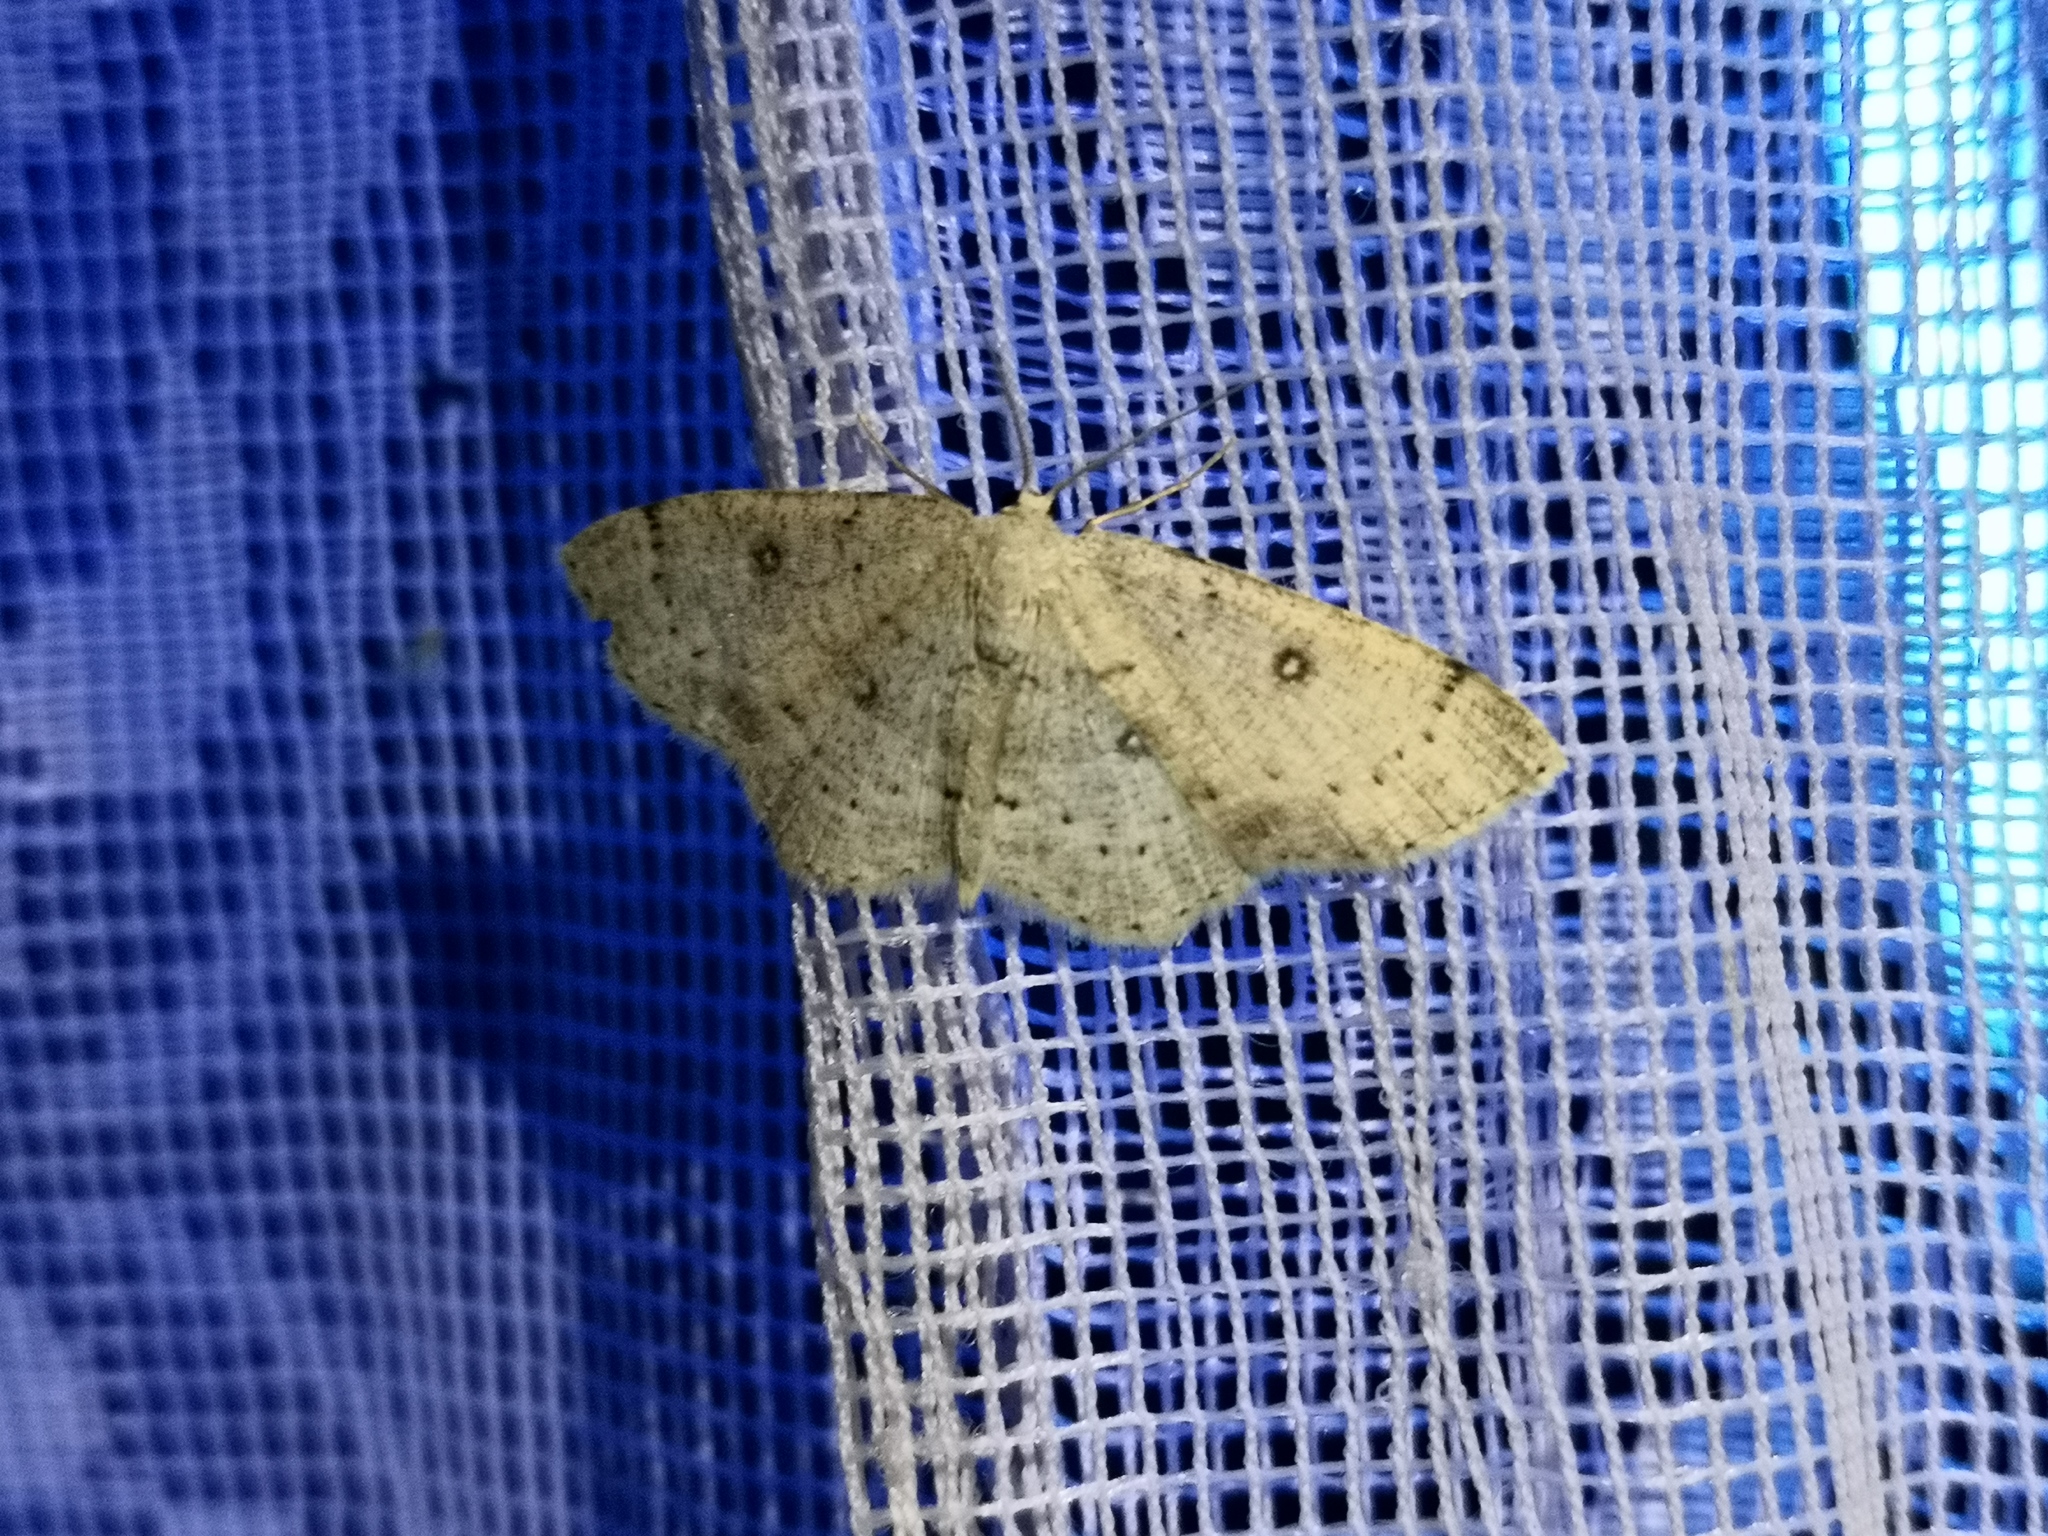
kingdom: Animalia
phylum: Arthropoda
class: Insecta
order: Lepidoptera
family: Geometridae
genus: Cyclophora
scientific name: Cyclophora albipunctata
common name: Birch mocha
